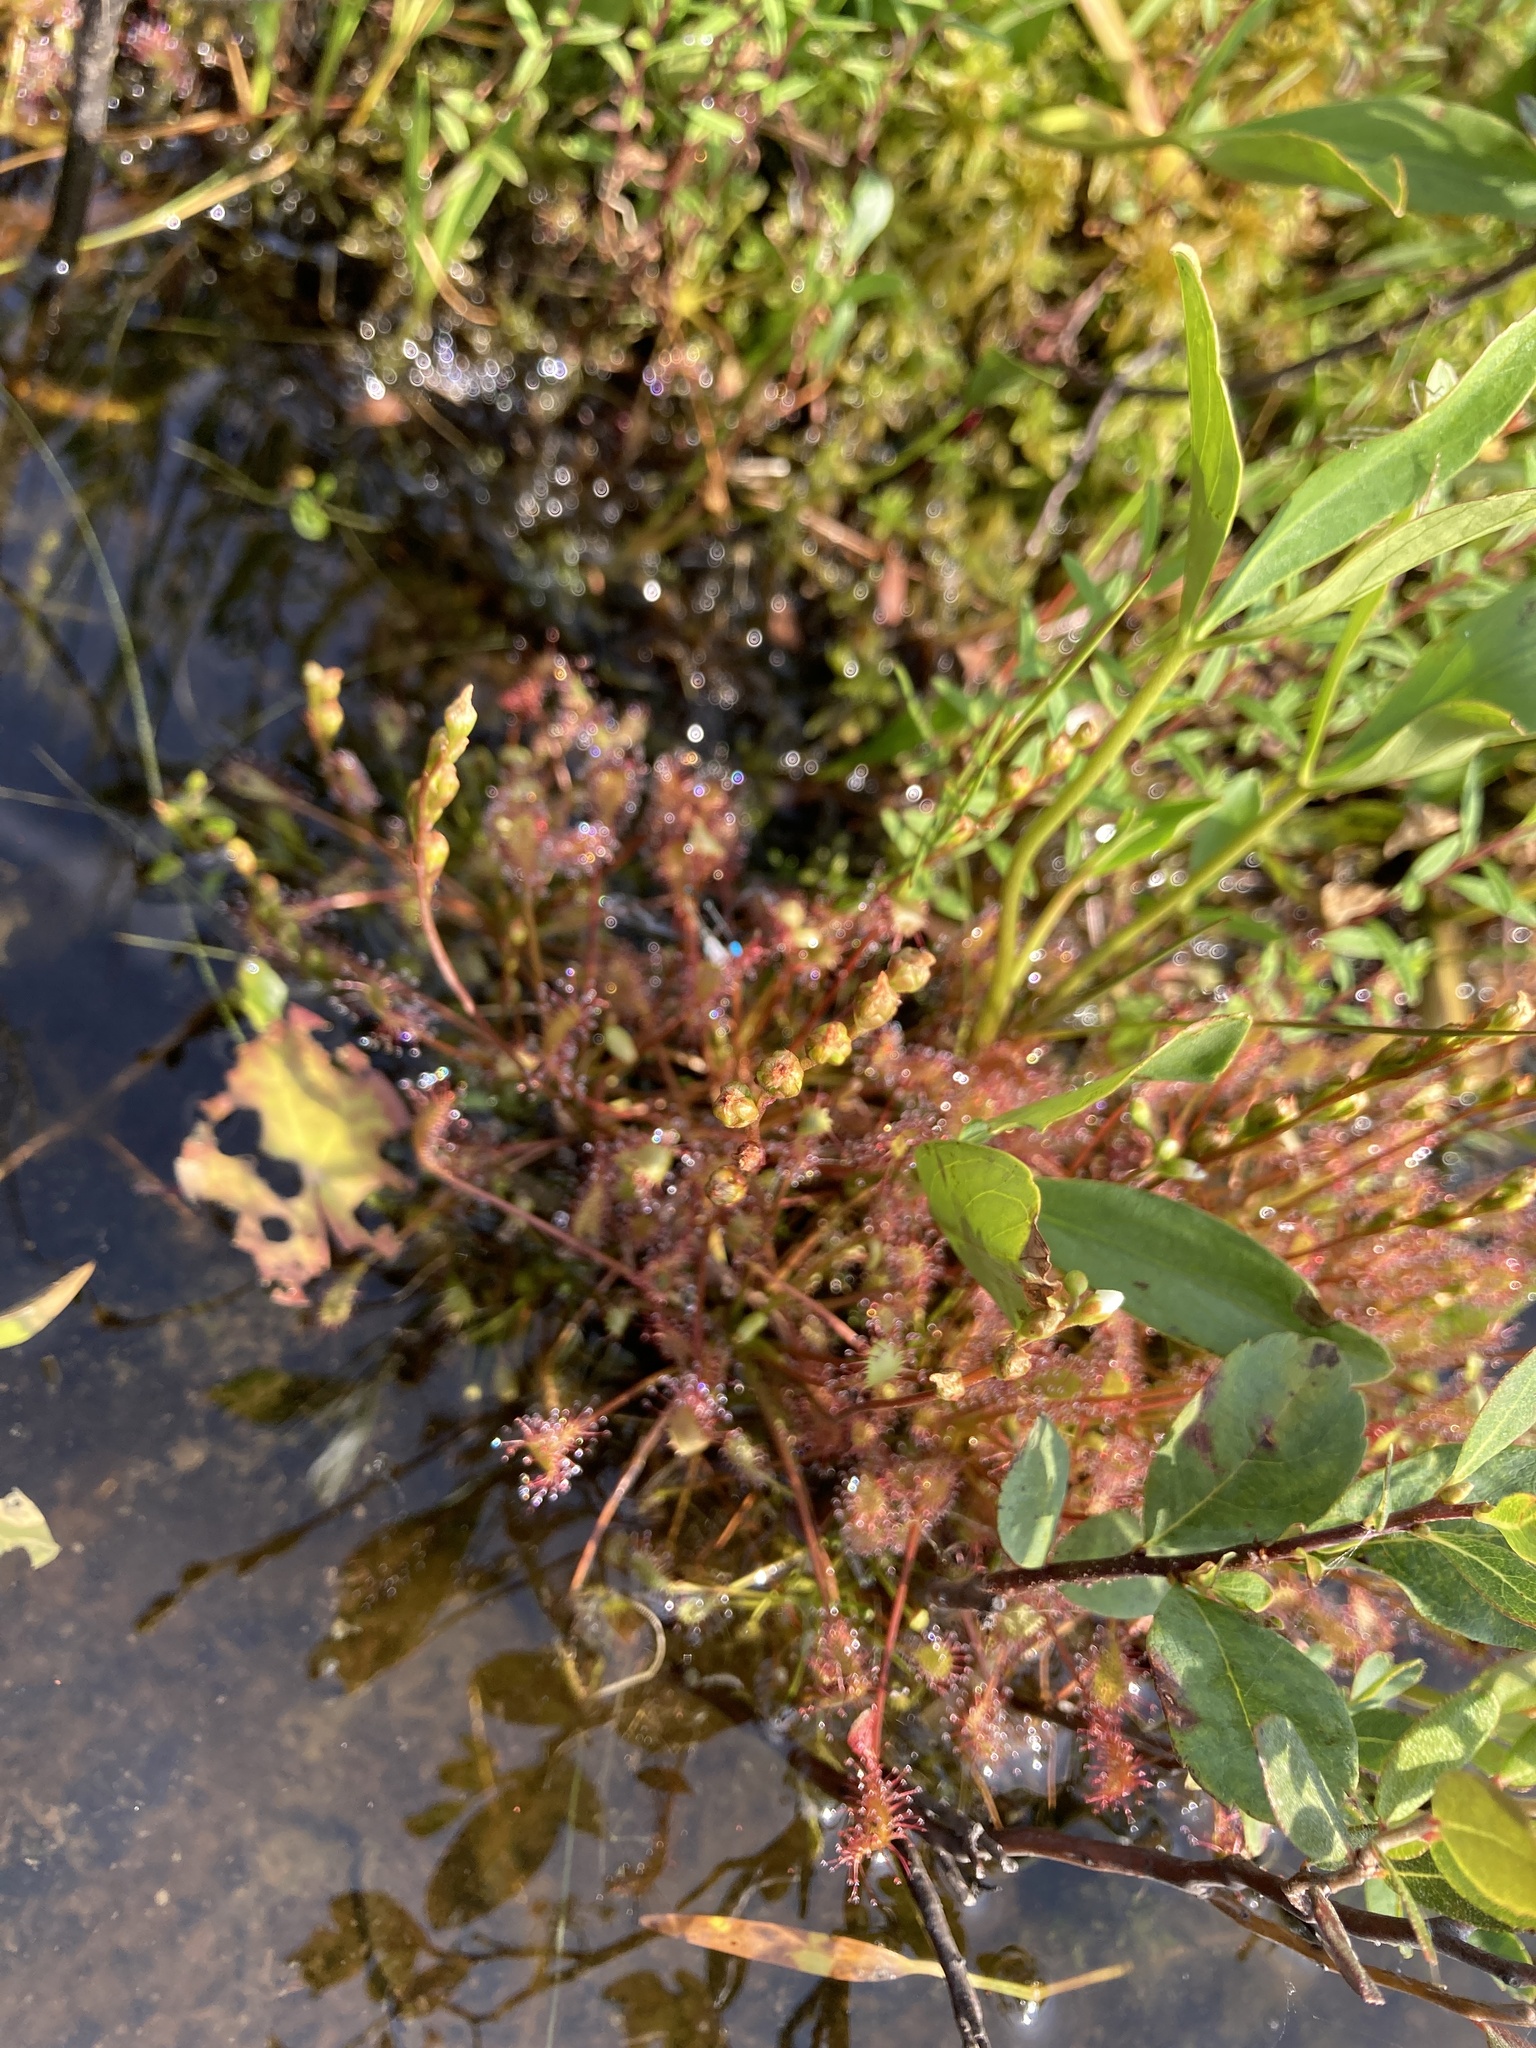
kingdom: Plantae
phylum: Tracheophyta
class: Magnoliopsida
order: Caryophyllales
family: Droseraceae
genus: Drosera
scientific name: Drosera intermedia
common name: Oblong-leaved sundew
